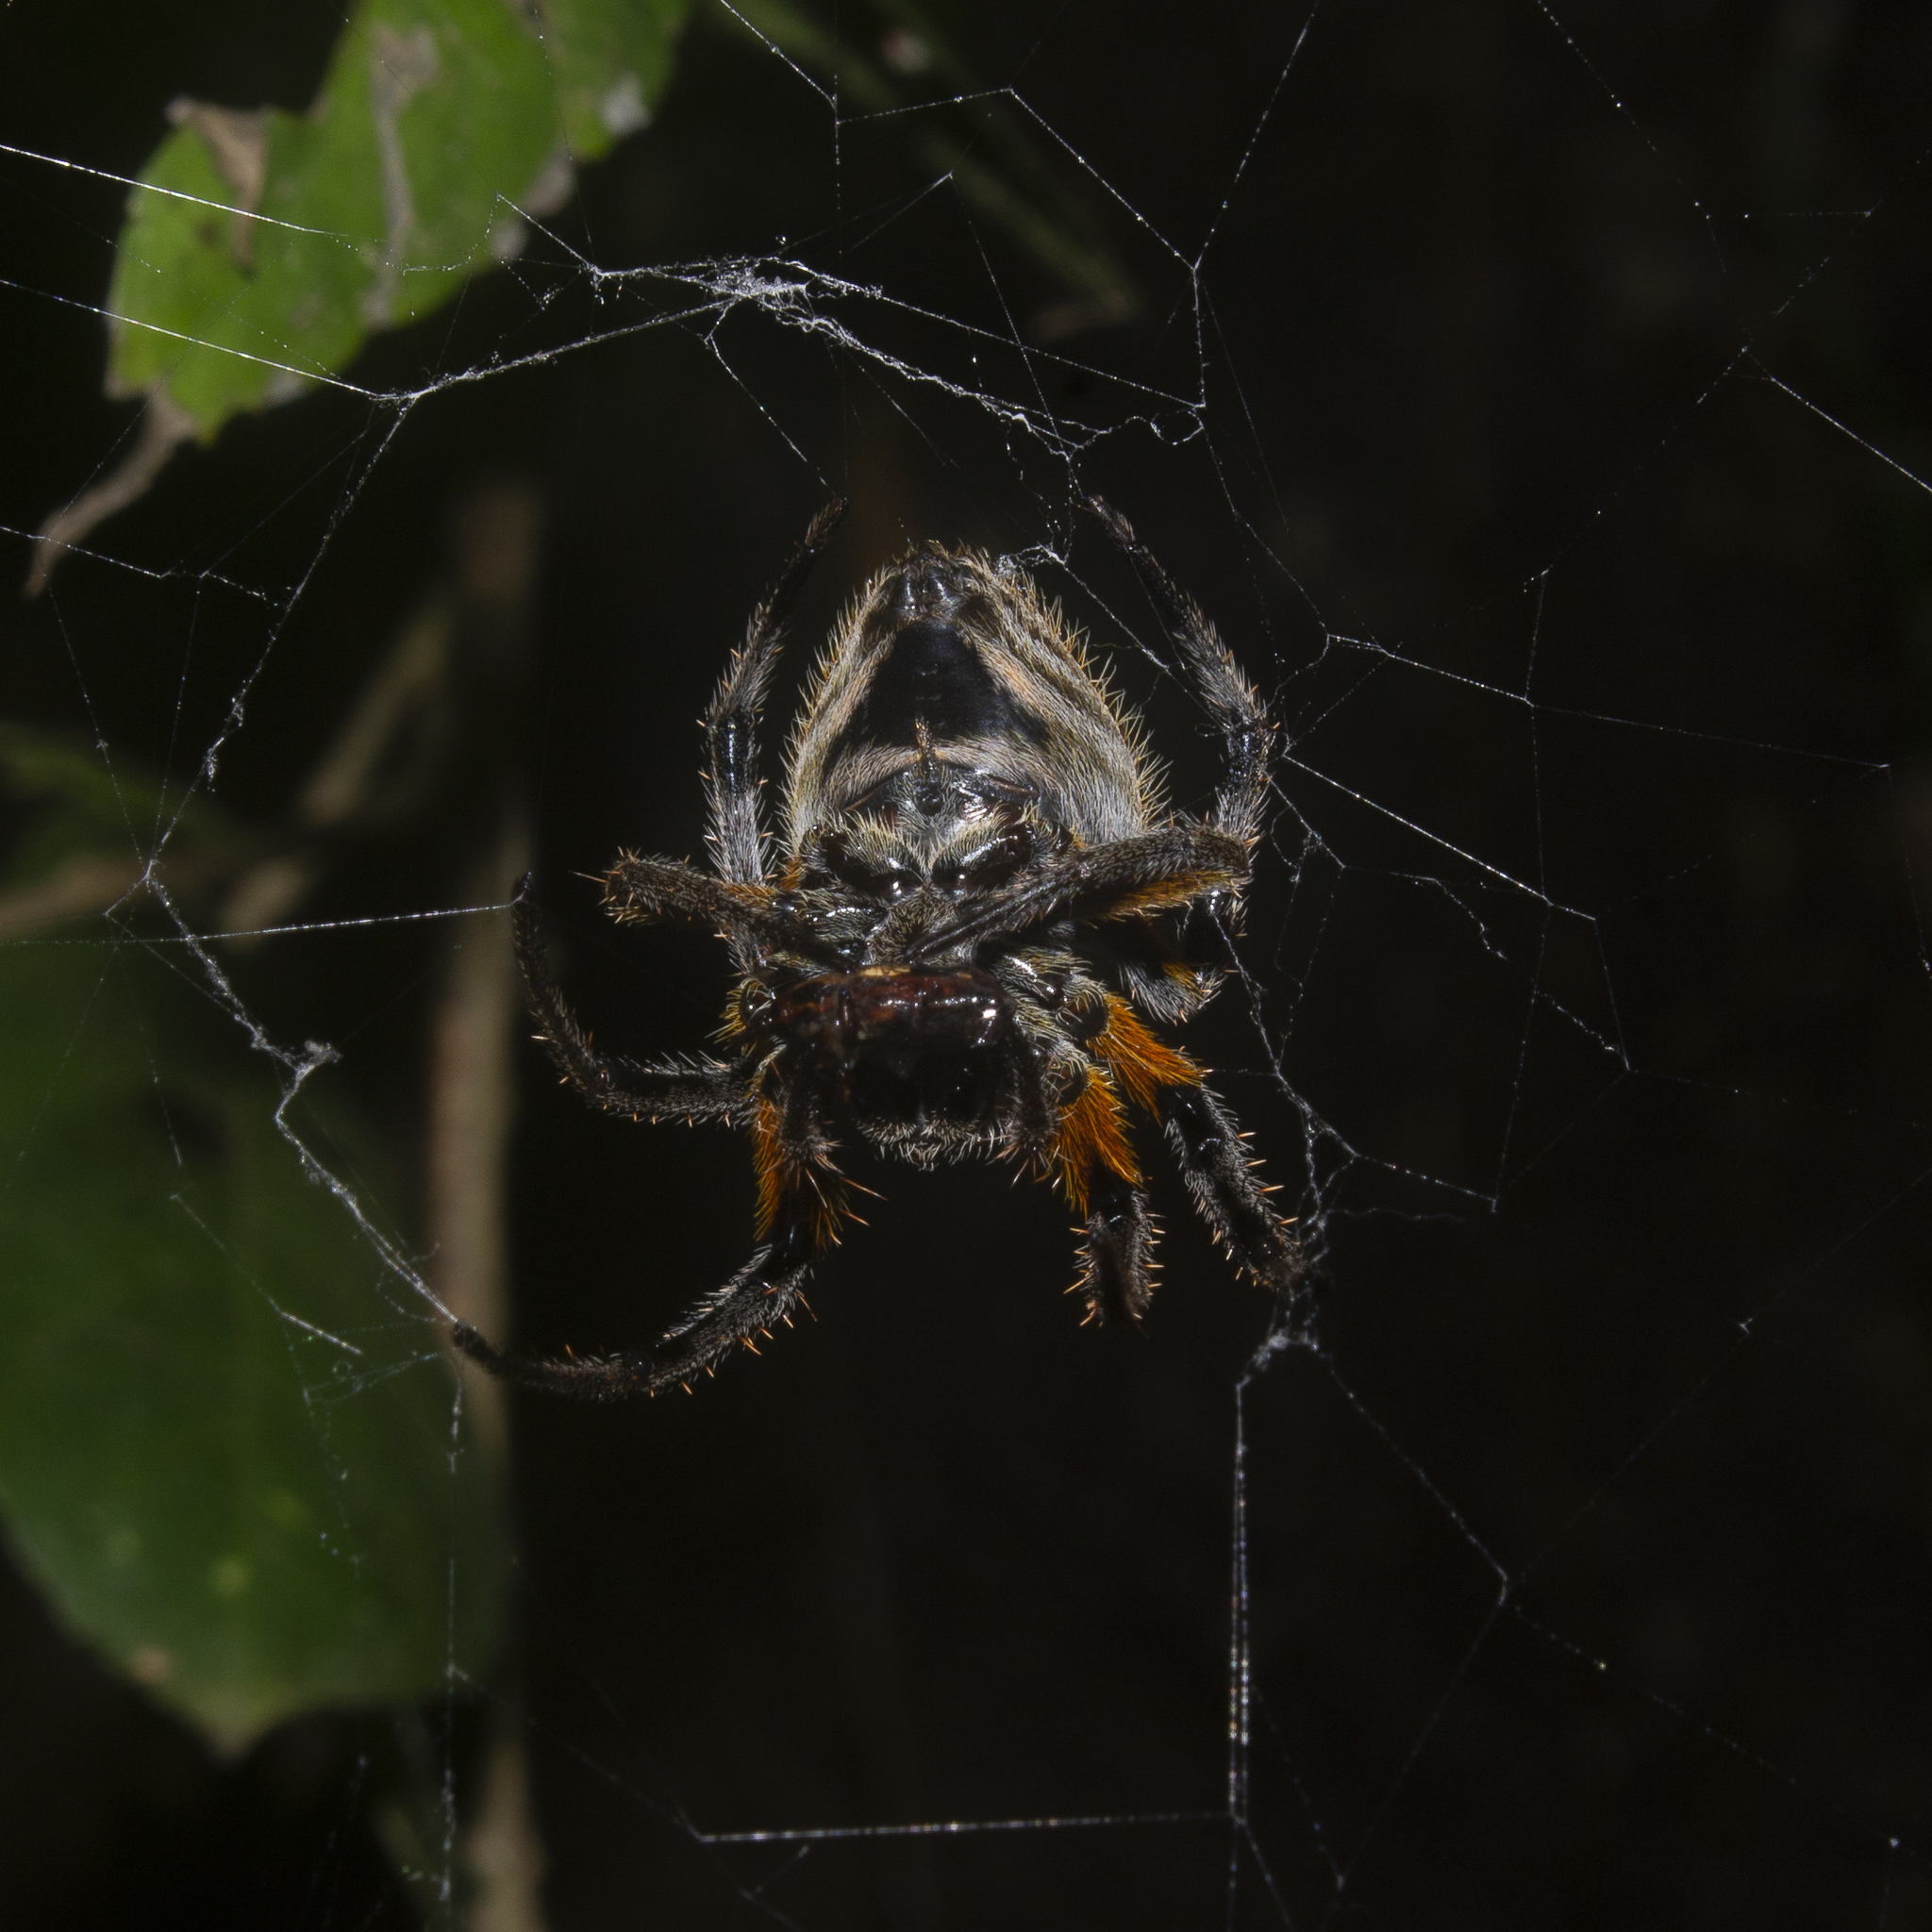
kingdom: Animalia
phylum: Arthropoda
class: Arachnida
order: Araneae
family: Araneidae
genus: Eriophora
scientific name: Eriophora fuliginea
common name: Orb weavers
